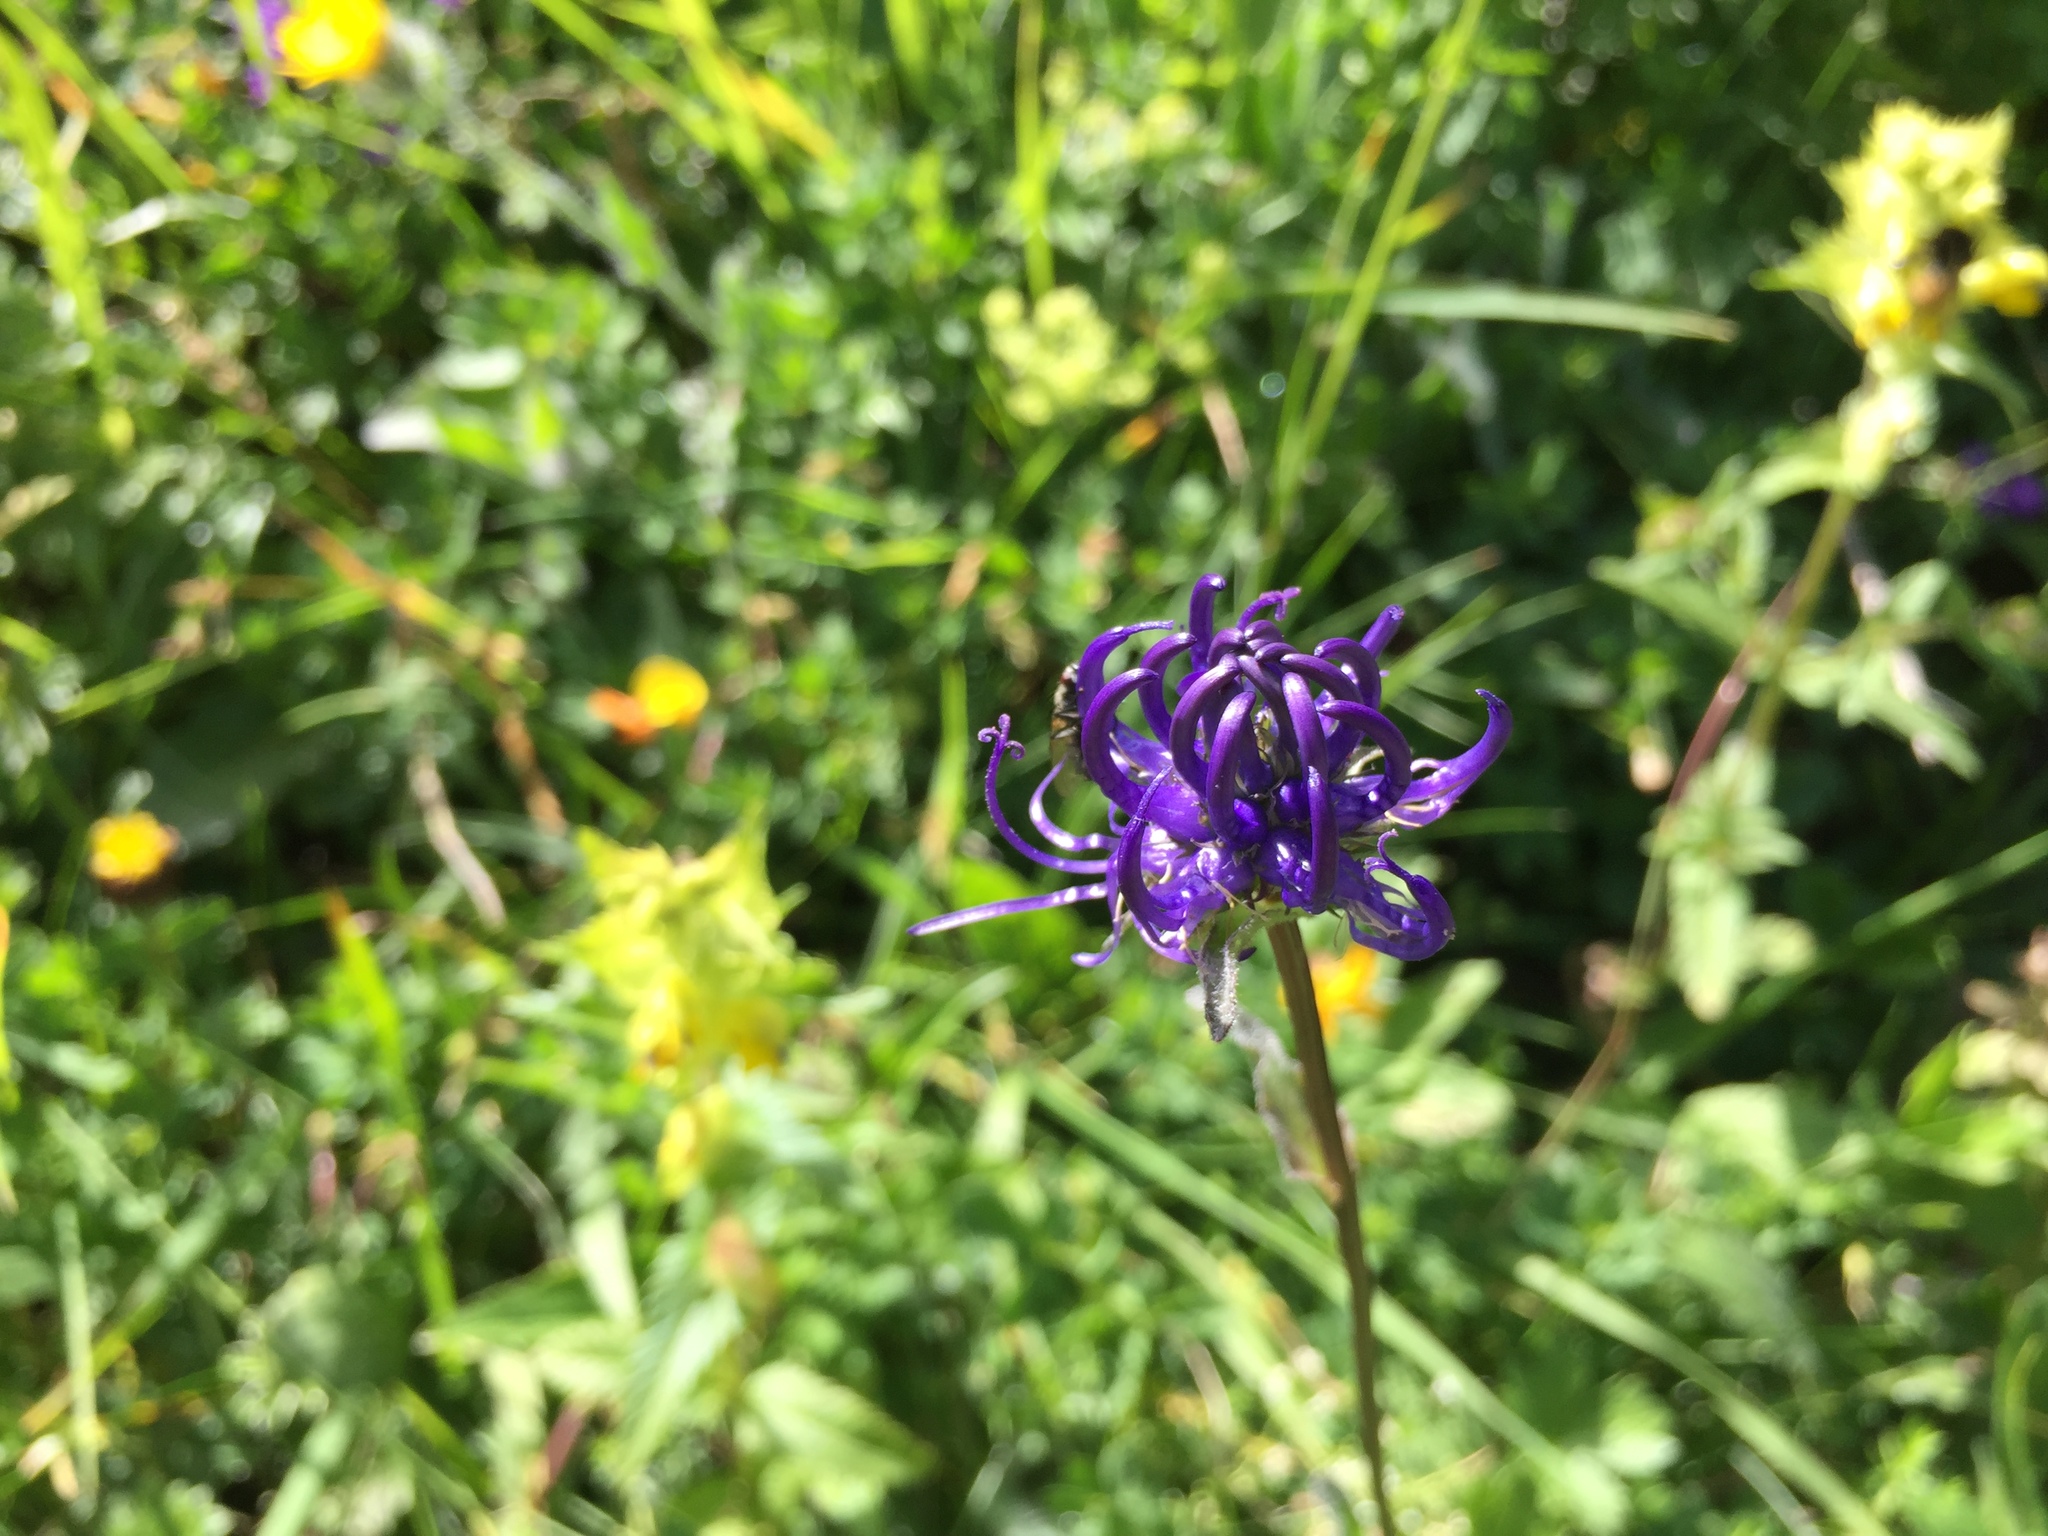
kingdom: Plantae
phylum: Tracheophyta
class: Magnoliopsida
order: Asterales
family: Campanulaceae
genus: Phyteuma
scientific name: Phyteuma orbiculare
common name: Round-headed rampion
